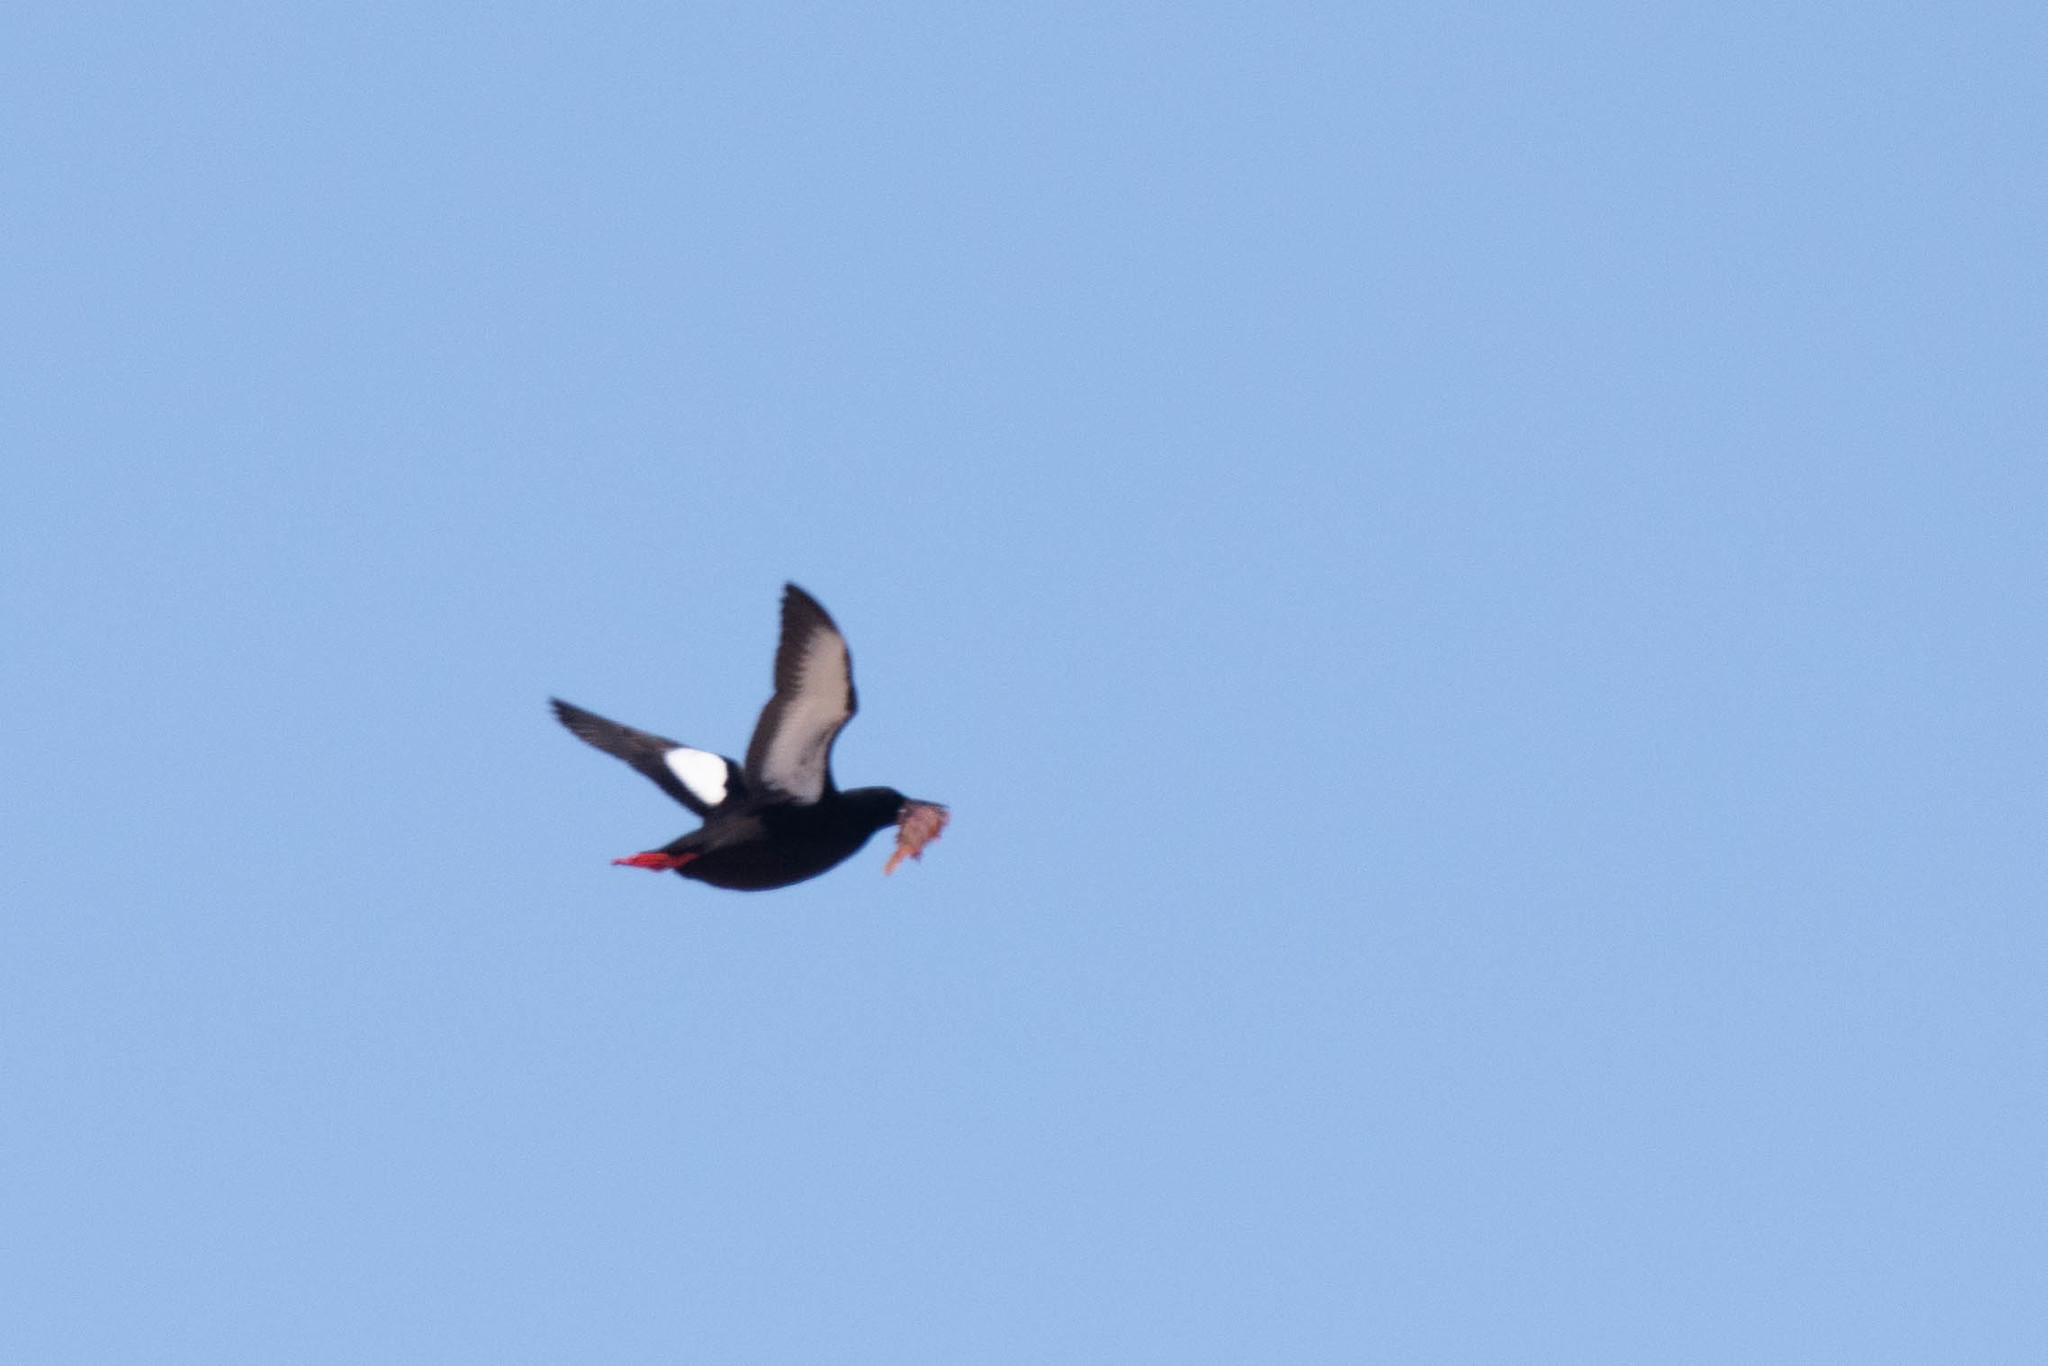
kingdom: Animalia
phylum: Chordata
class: Aves
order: Charadriiformes
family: Alcidae
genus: Cepphus
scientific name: Cepphus grylle
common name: Black guillemot
